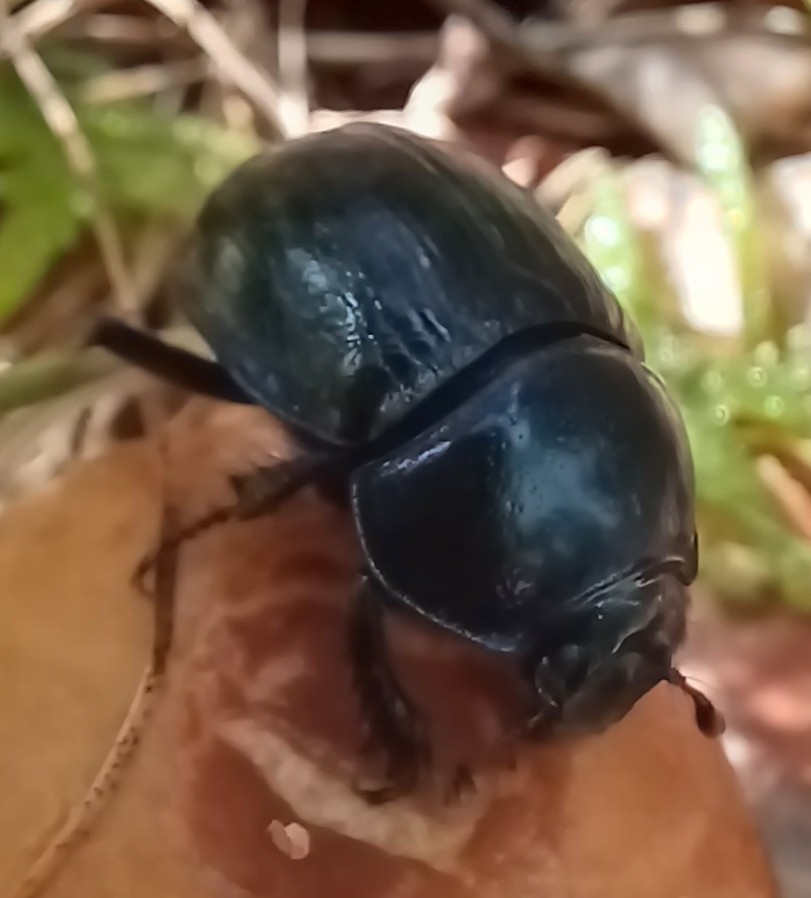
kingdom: Animalia
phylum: Arthropoda
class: Insecta
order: Coleoptera
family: Geotrupidae
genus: Anoplotrupes
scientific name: Anoplotrupes stercorosus
